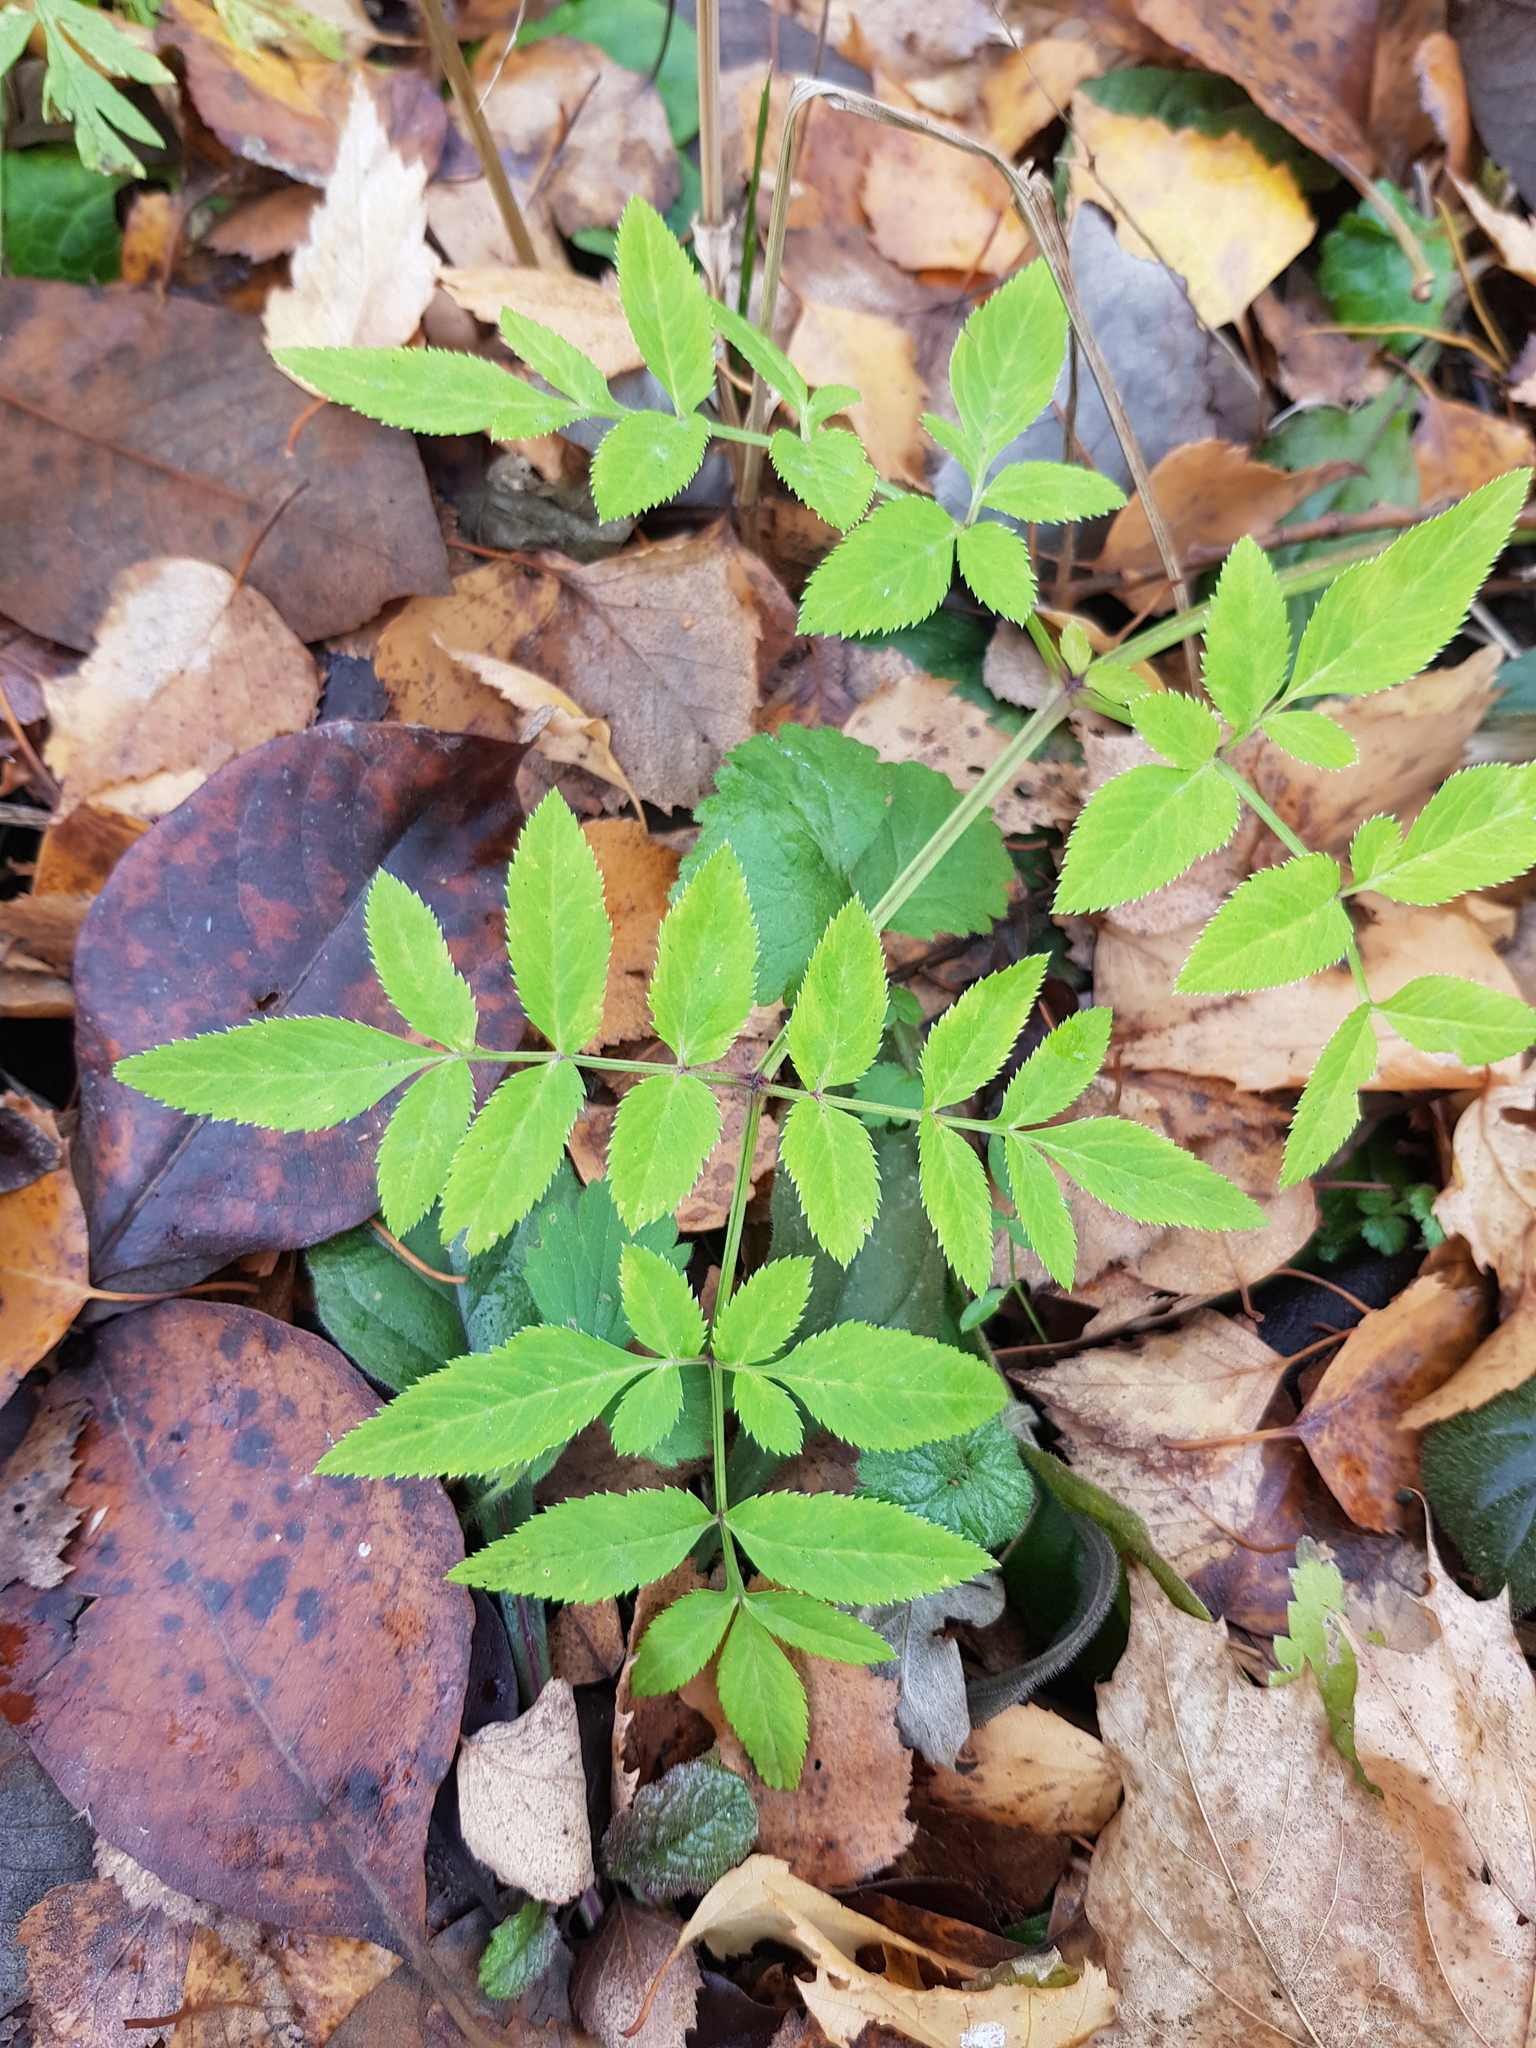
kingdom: Plantae
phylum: Tracheophyta
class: Magnoliopsida
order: Apiales
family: Apiaceae
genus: Angelica
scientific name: Angelica sylvestris
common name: Wild angelica
